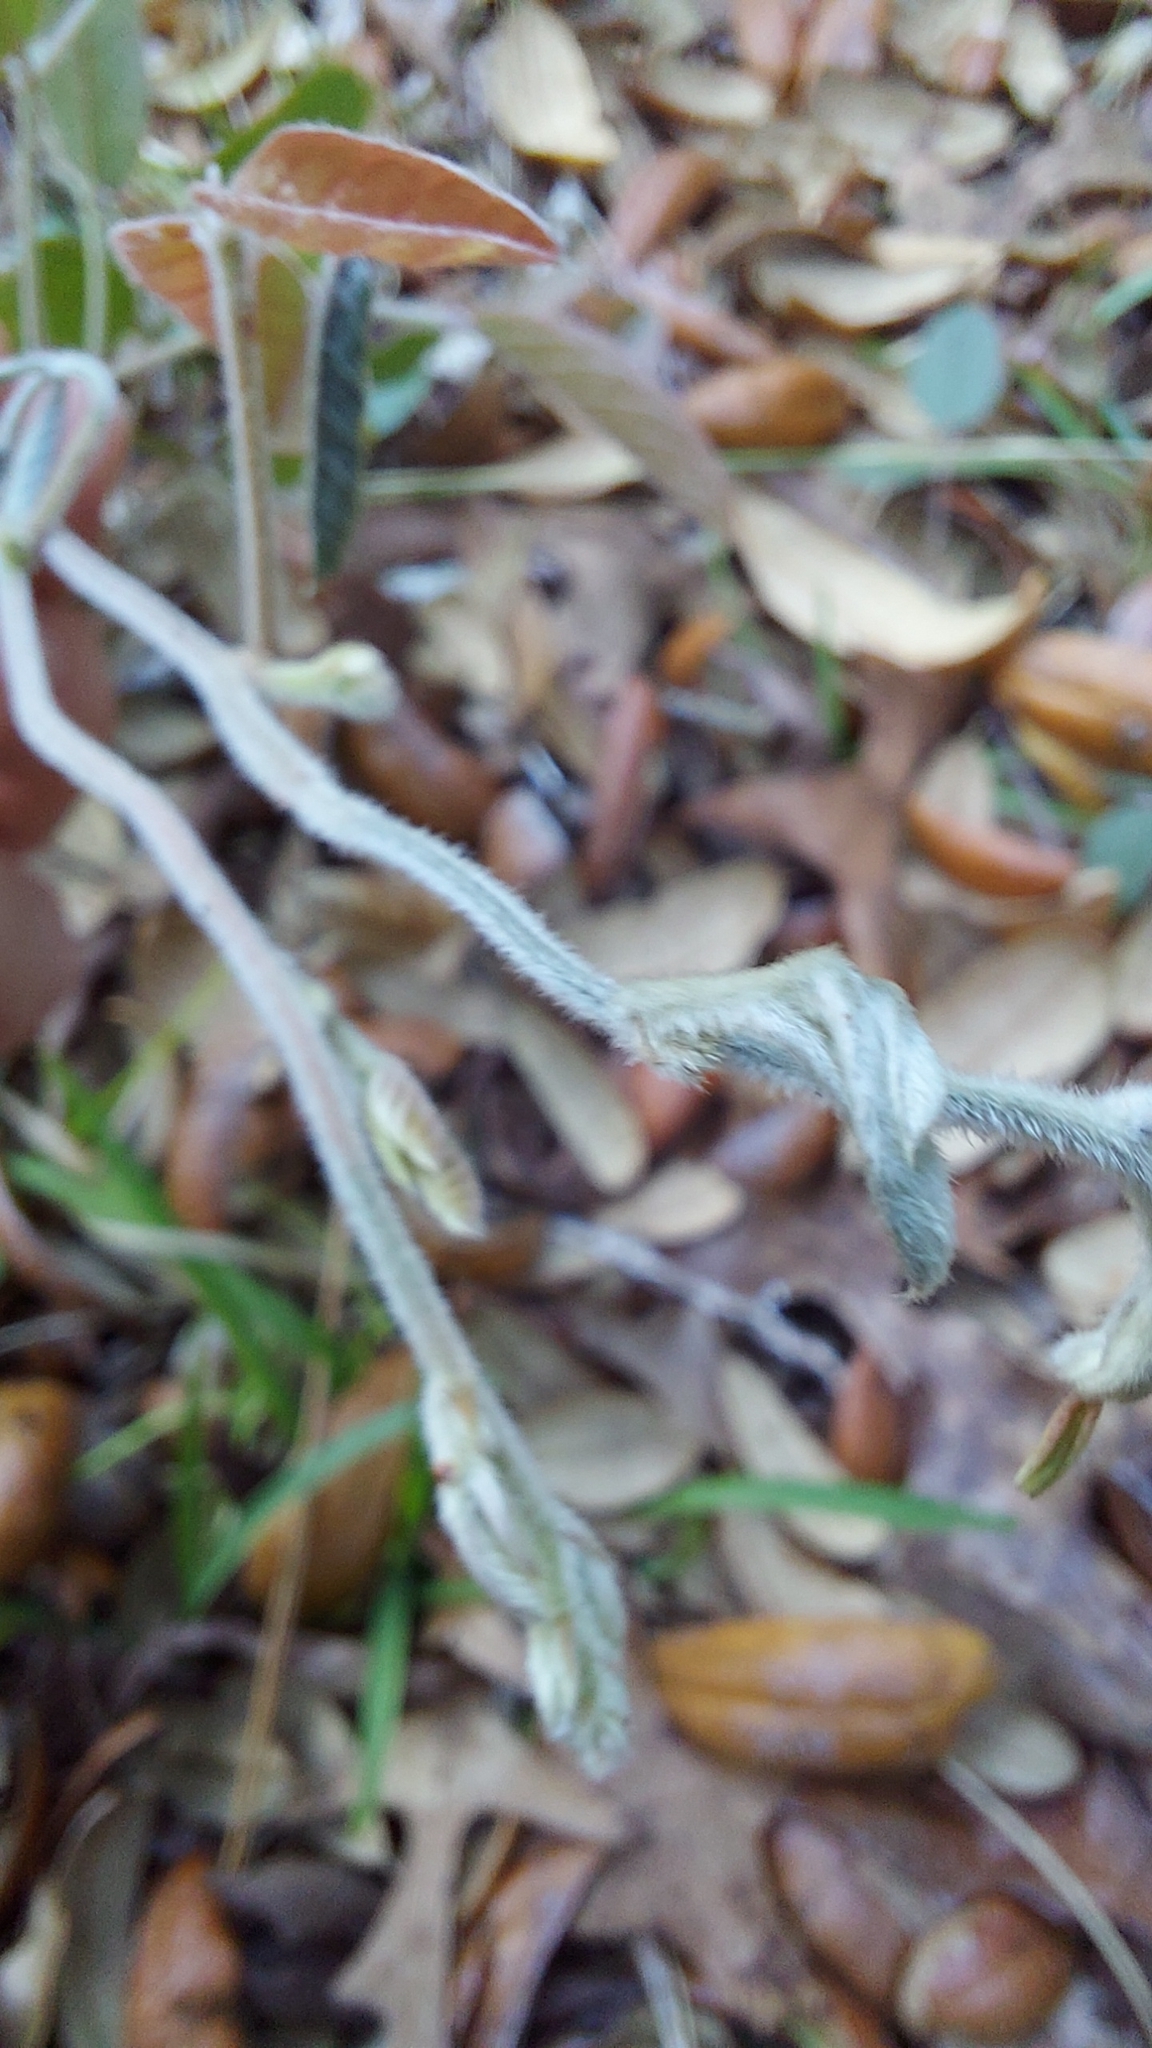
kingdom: Plantae
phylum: Tracheophyta
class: Magnoliopsida
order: Fabales
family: Fabaceae
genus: Galactia
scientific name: Galactia floridana
